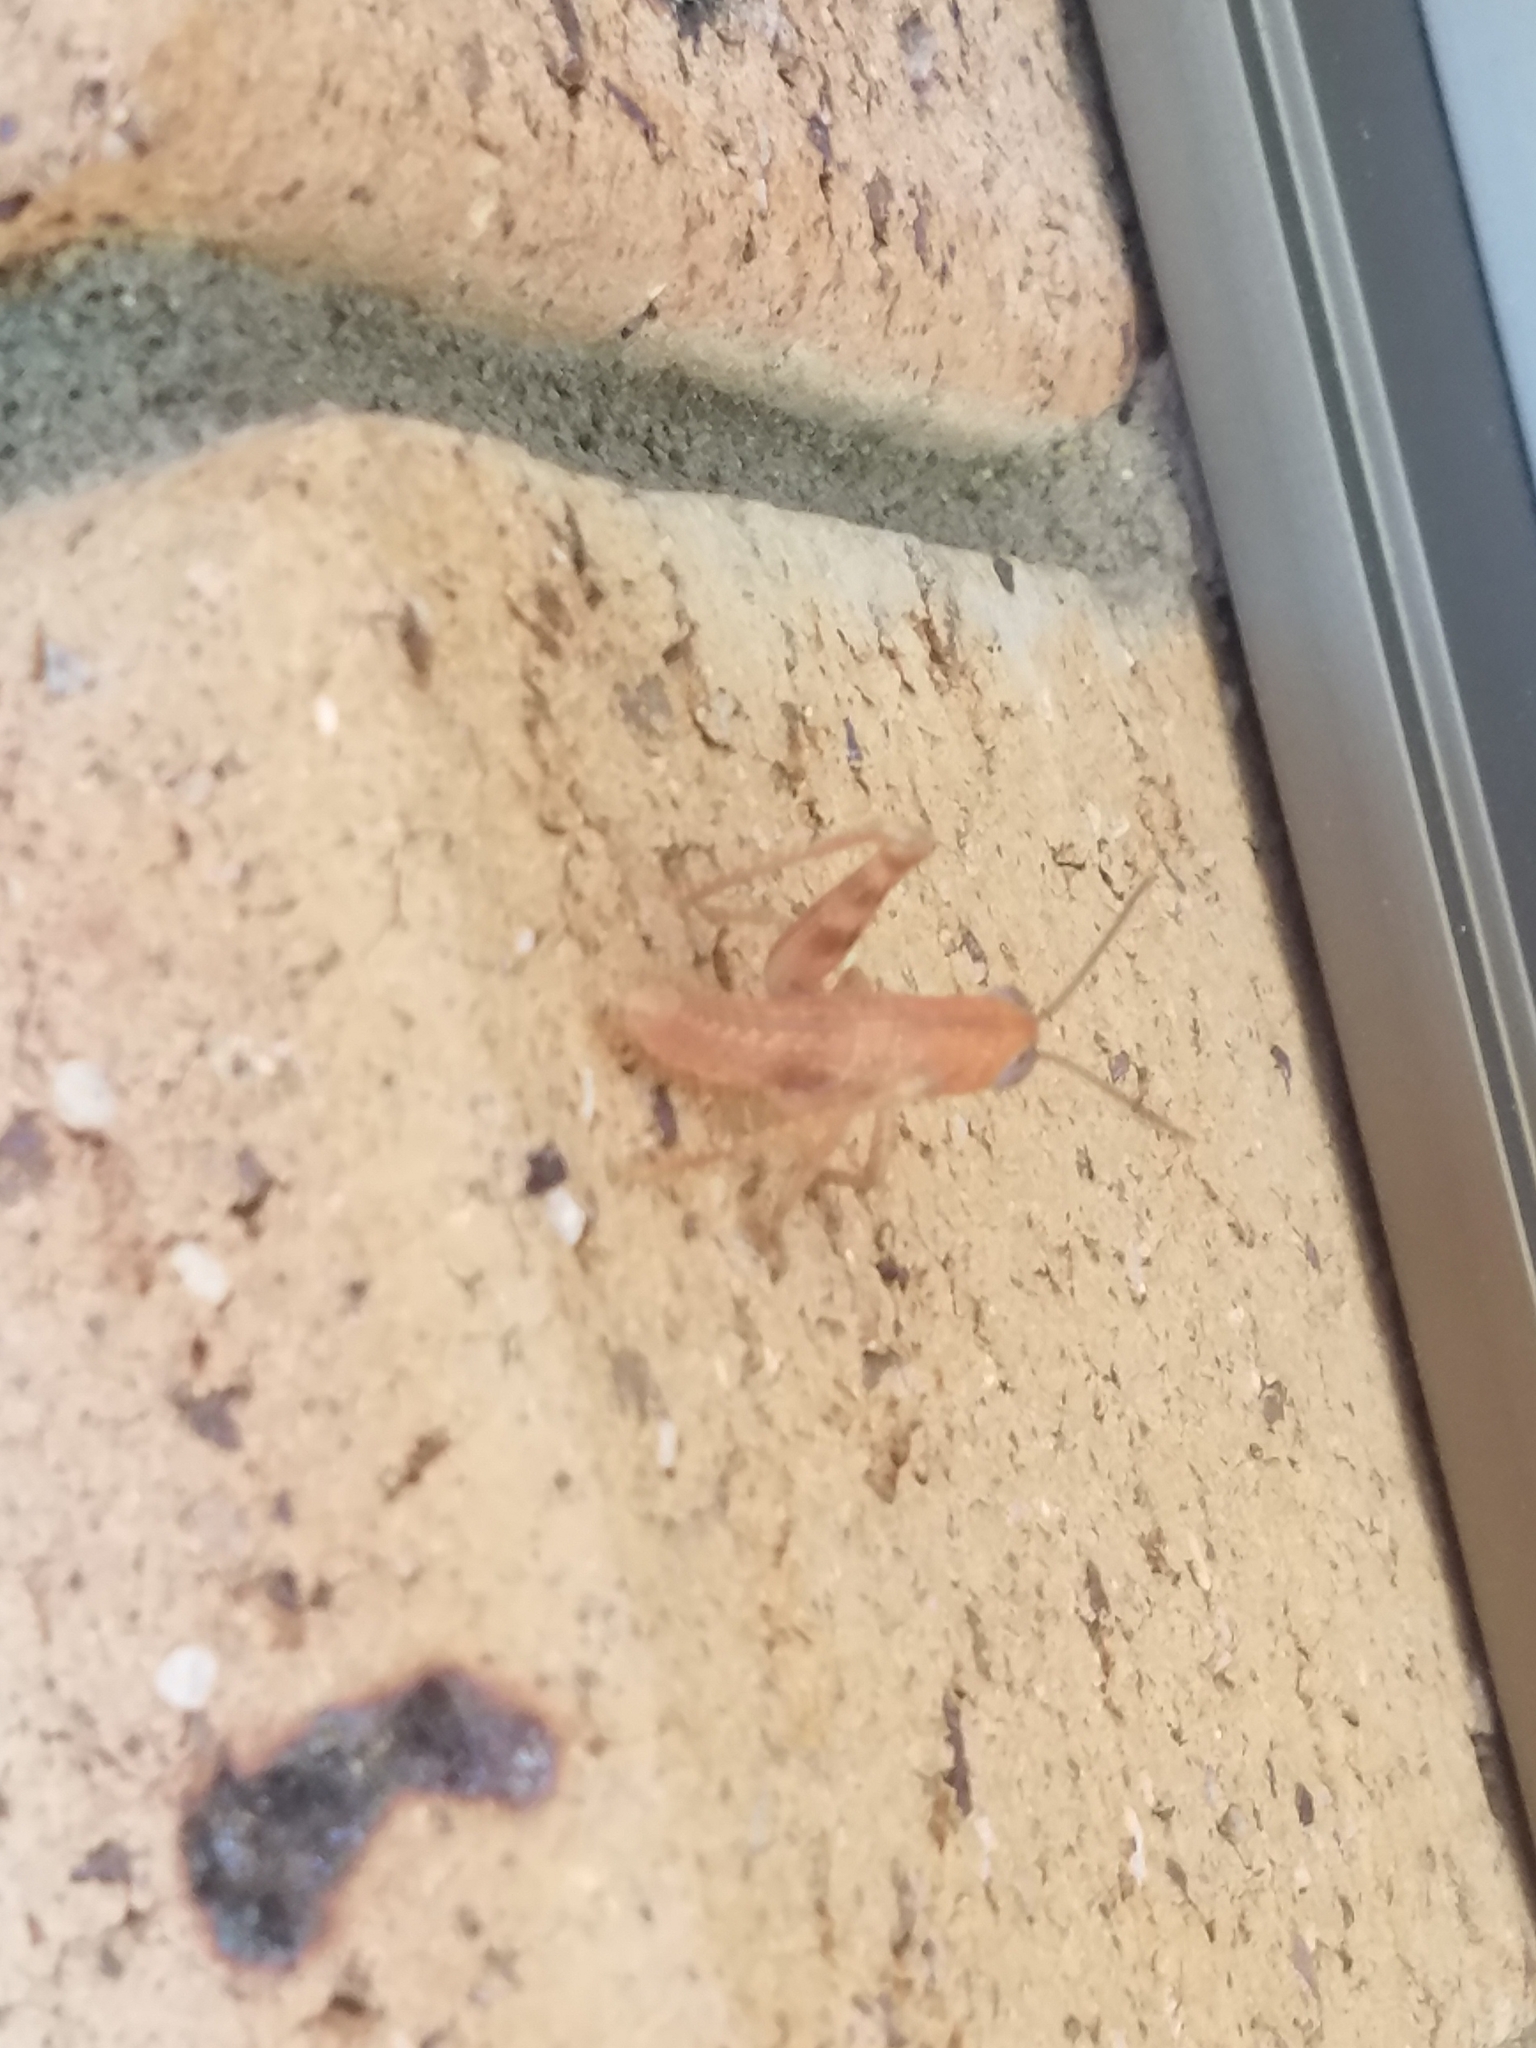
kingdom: Animalia
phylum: Arthropoda
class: Insecta
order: Orthoptera
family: Acrididae
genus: Valanga
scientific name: Valanga irregularis
